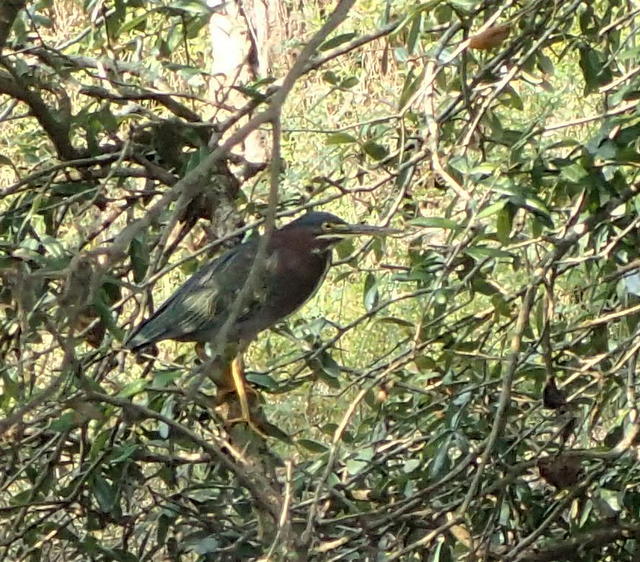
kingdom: Animalia
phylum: Chordata
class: Aves
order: Pelecaniformes
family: Ardeidae
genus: Butorides
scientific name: Butorides virescens
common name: Green heron
